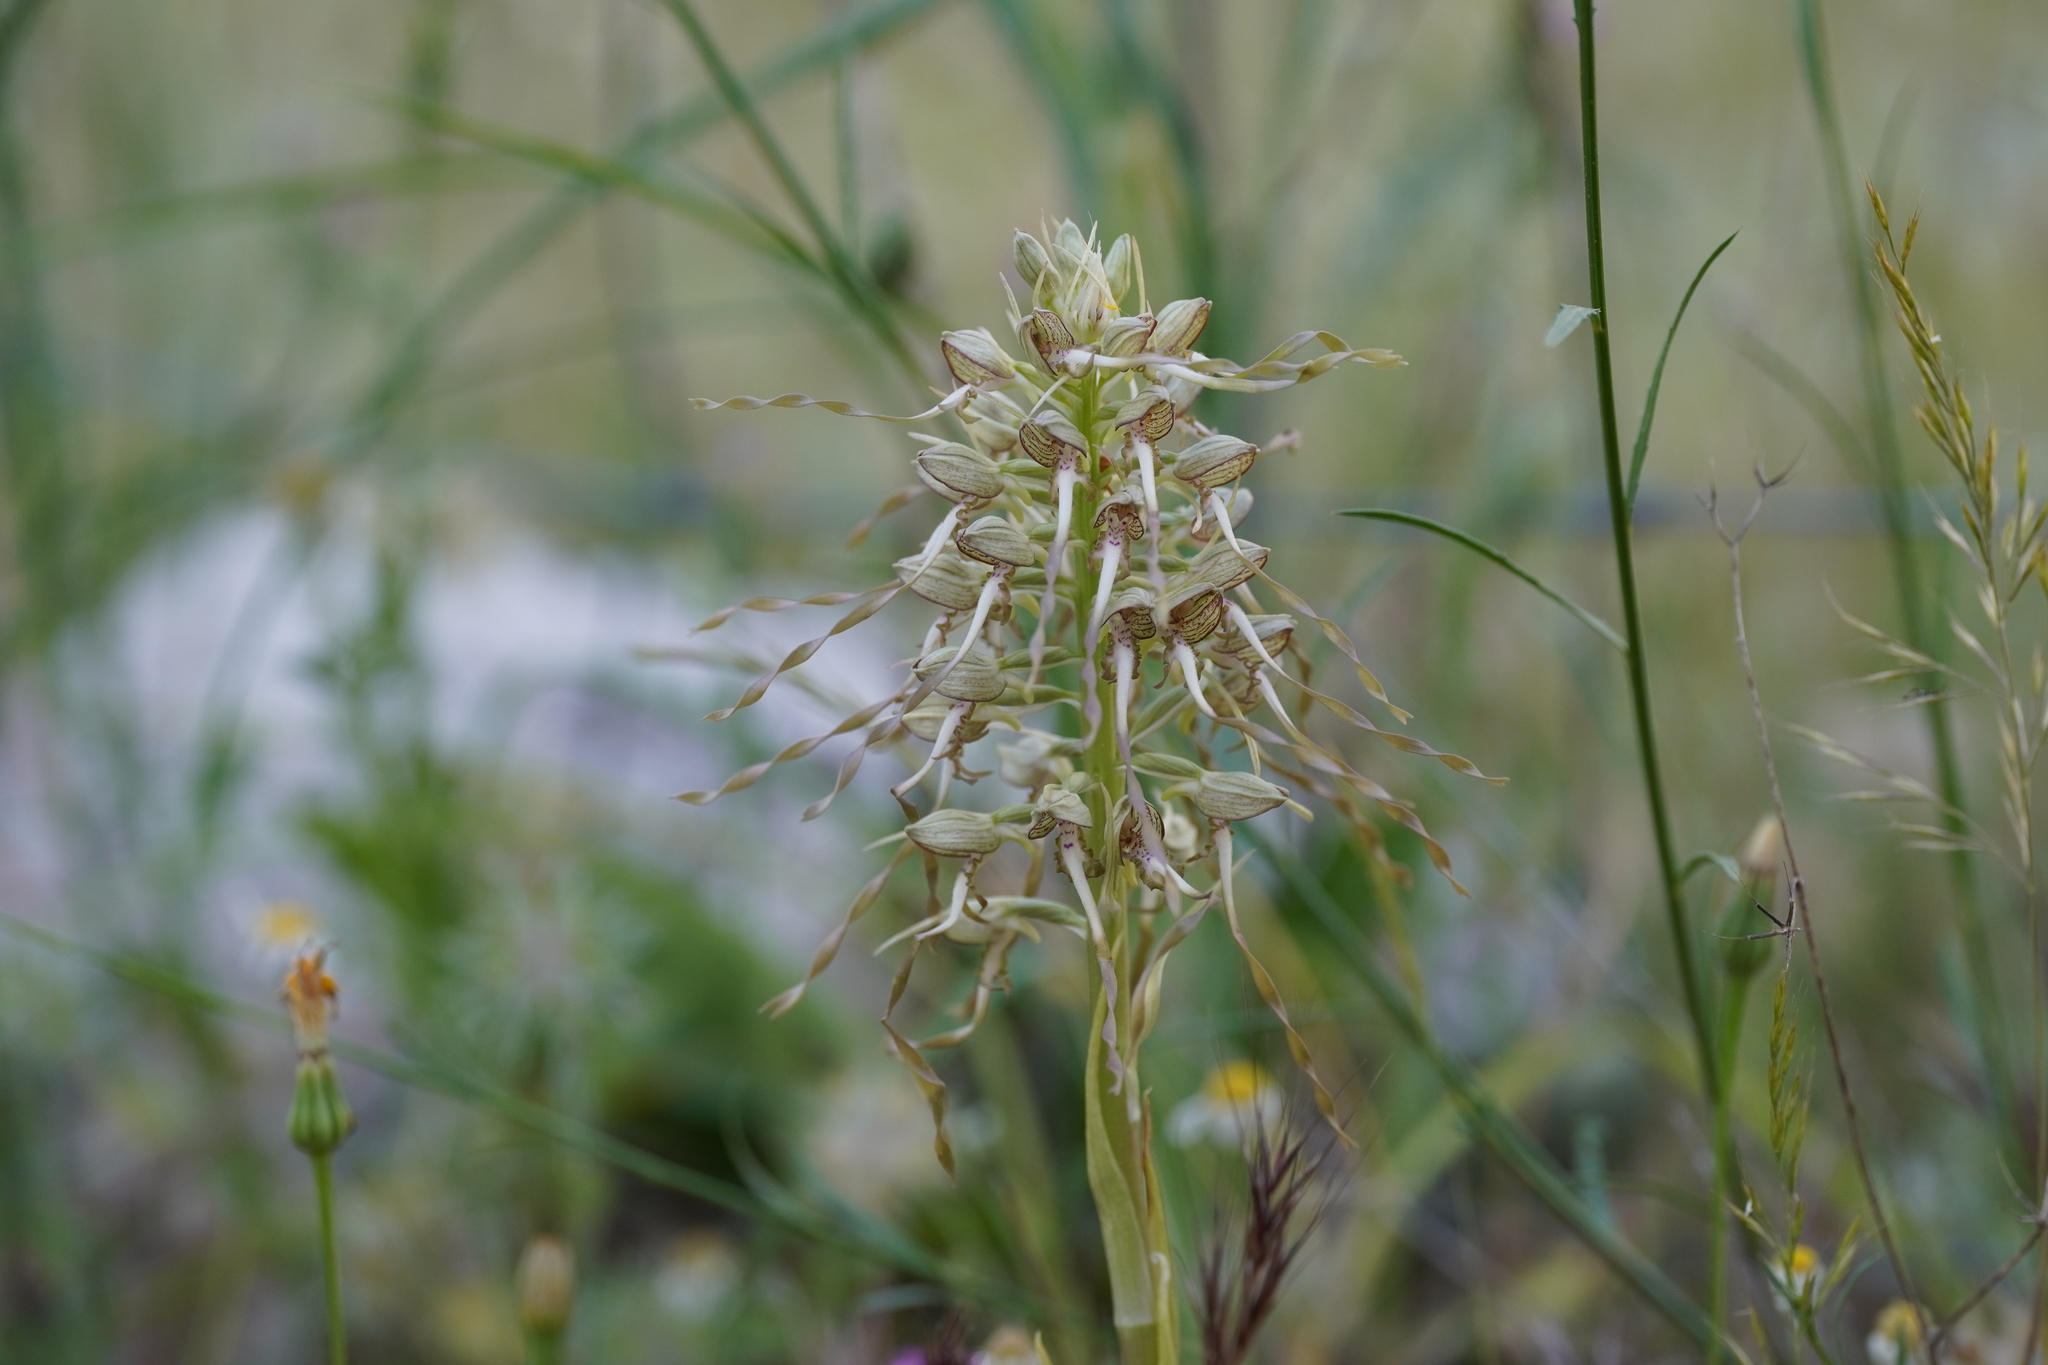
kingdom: Plantae
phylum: Tracheophyta
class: Liliopsida
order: Asparagales
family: Orchidaceae
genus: Himantoglossum
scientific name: Himantoglossum hircinum
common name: Lizard orchid
